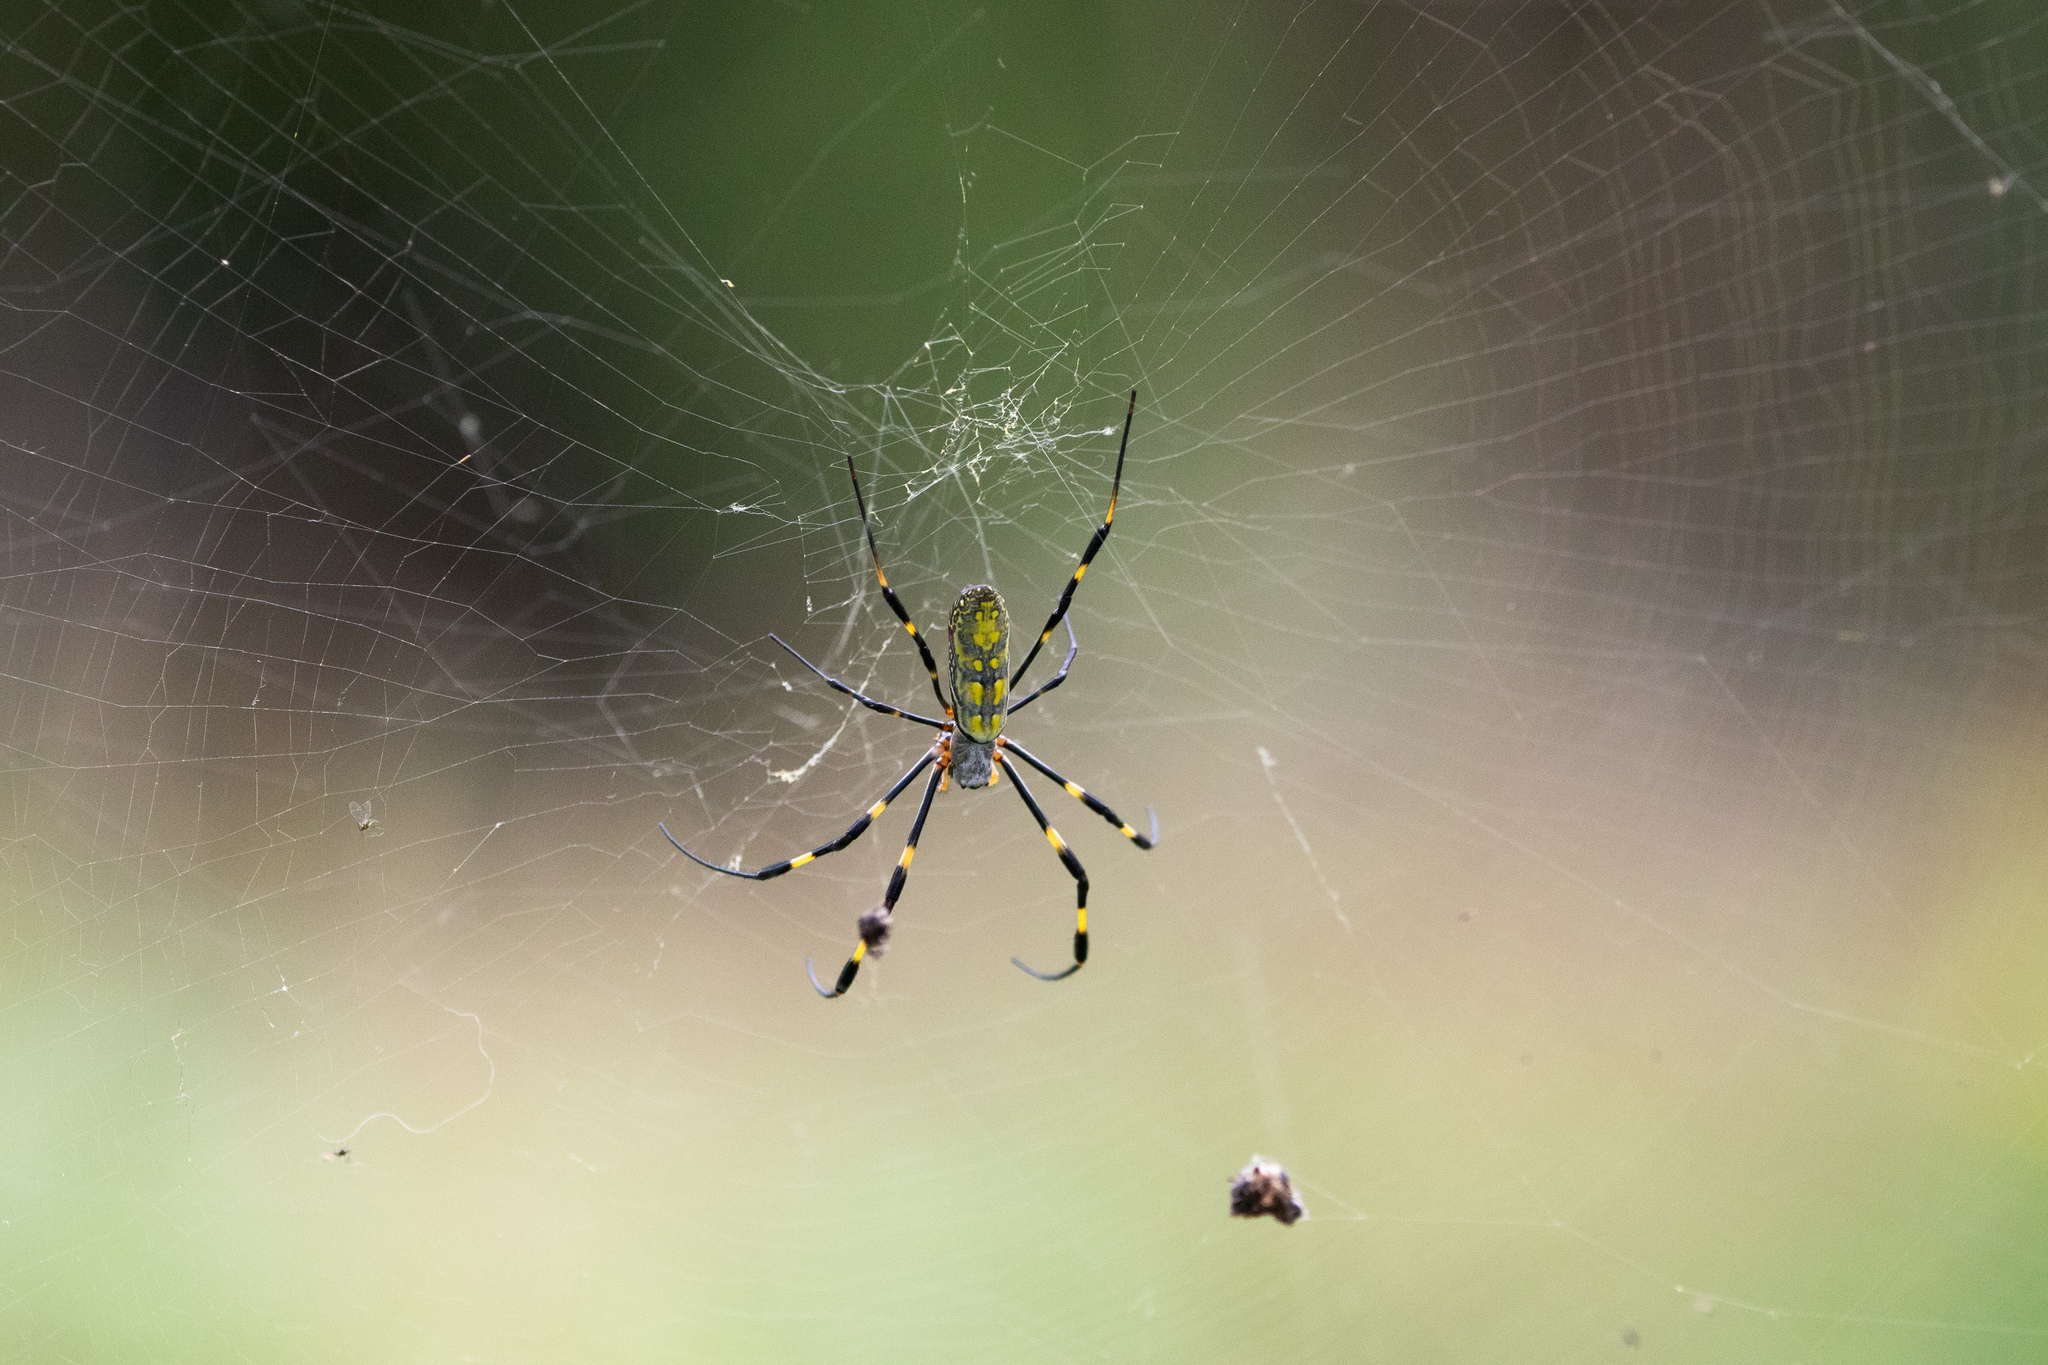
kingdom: Animalia
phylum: Arthropoda
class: Arachnida
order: Araneae
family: Araneidae
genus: Trichonephila
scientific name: Trichonephila clavata
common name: Jorō spider
